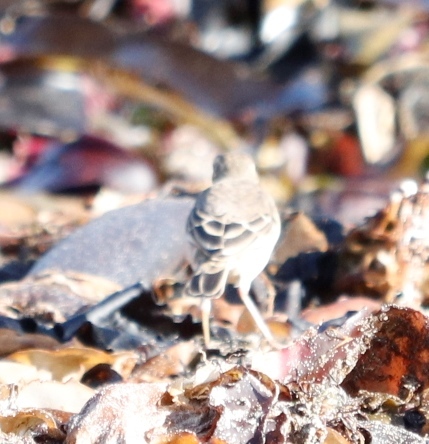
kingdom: Animalia
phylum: Chordata
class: Aves
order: Passeriformes
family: Motacillidae
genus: Anthus
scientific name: Anthus leucophrys
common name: Plain-backed pipit
